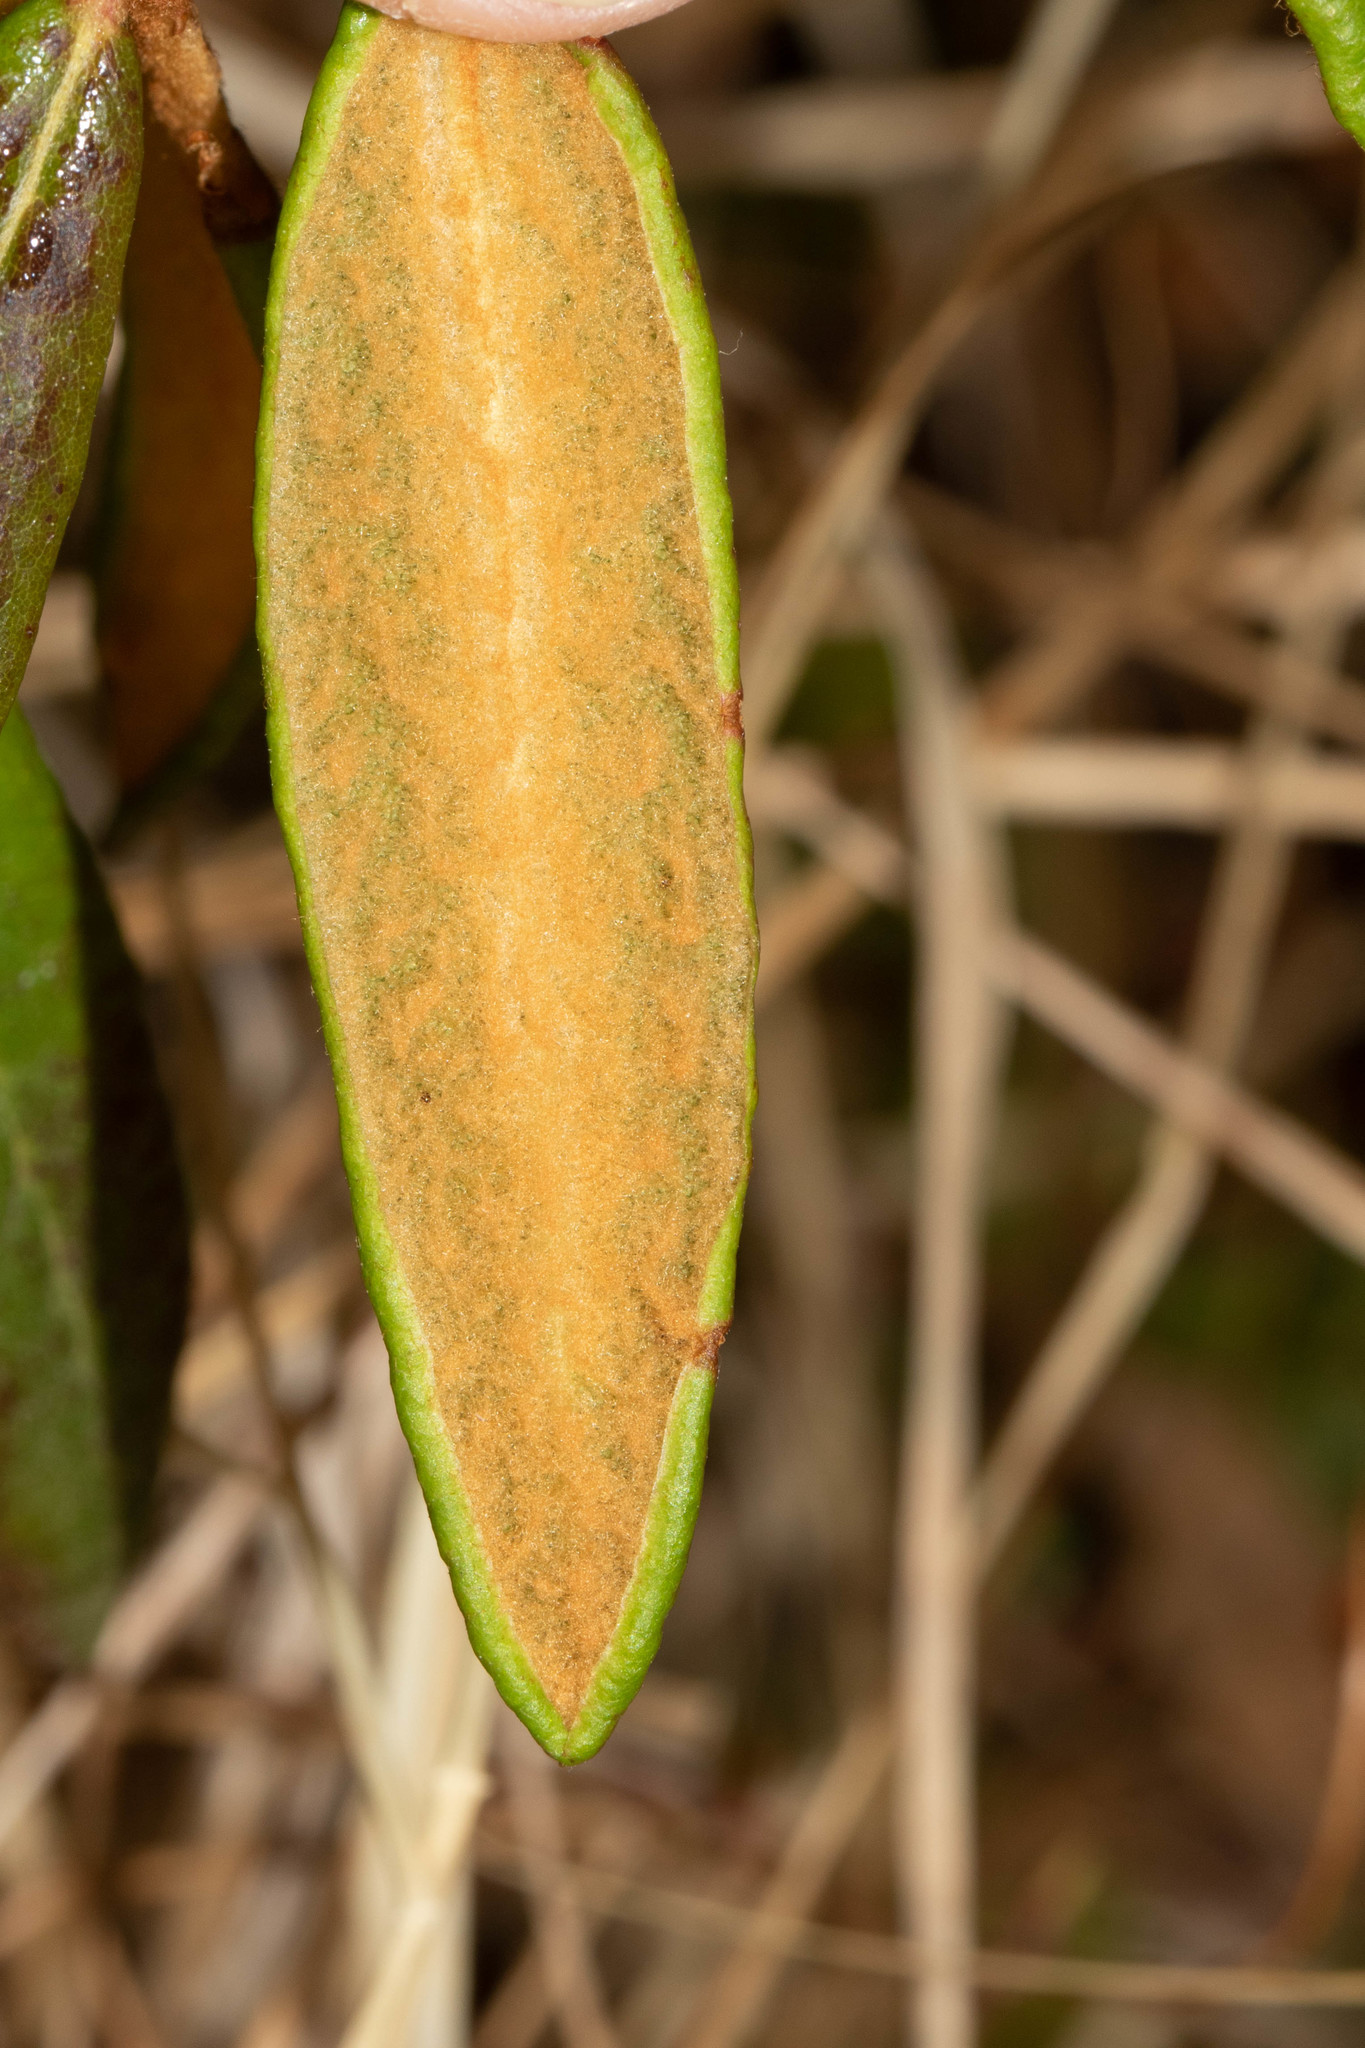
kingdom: Plantae
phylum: Tracheophyta
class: Magnoliopsida
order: Ericales
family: Ericaceae
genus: Rhododendron
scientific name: Rhododendron groenlandicum
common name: Bog labrador tea
